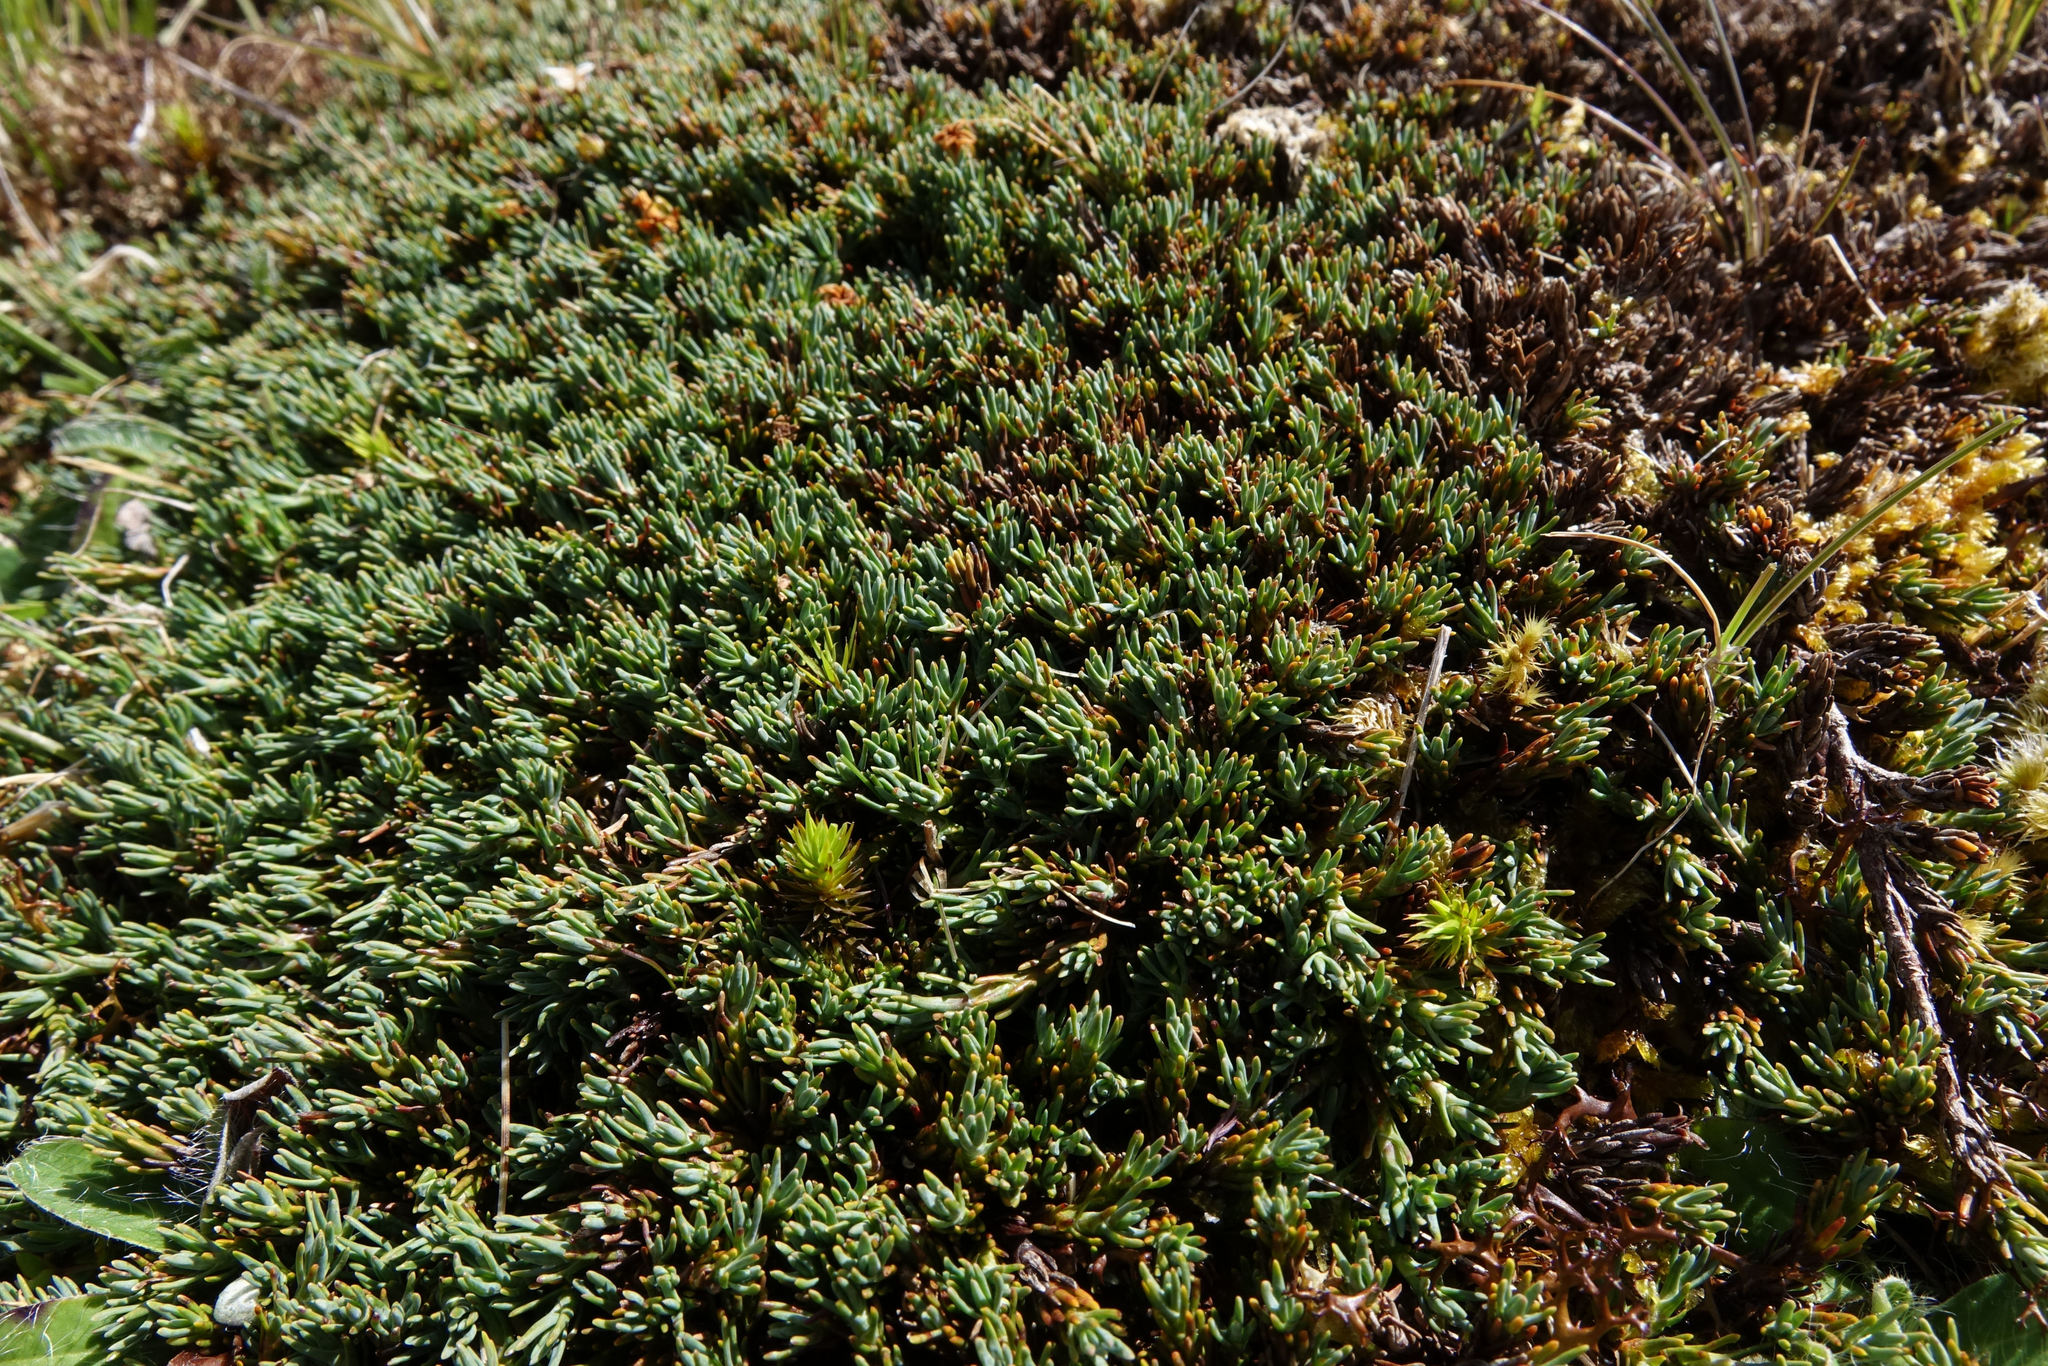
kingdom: Plantae
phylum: Tracheophyta
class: Magnoliopsida
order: Ericales
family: Ericaceae
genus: Dracophyllum
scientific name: Dracophyllum prostratum
